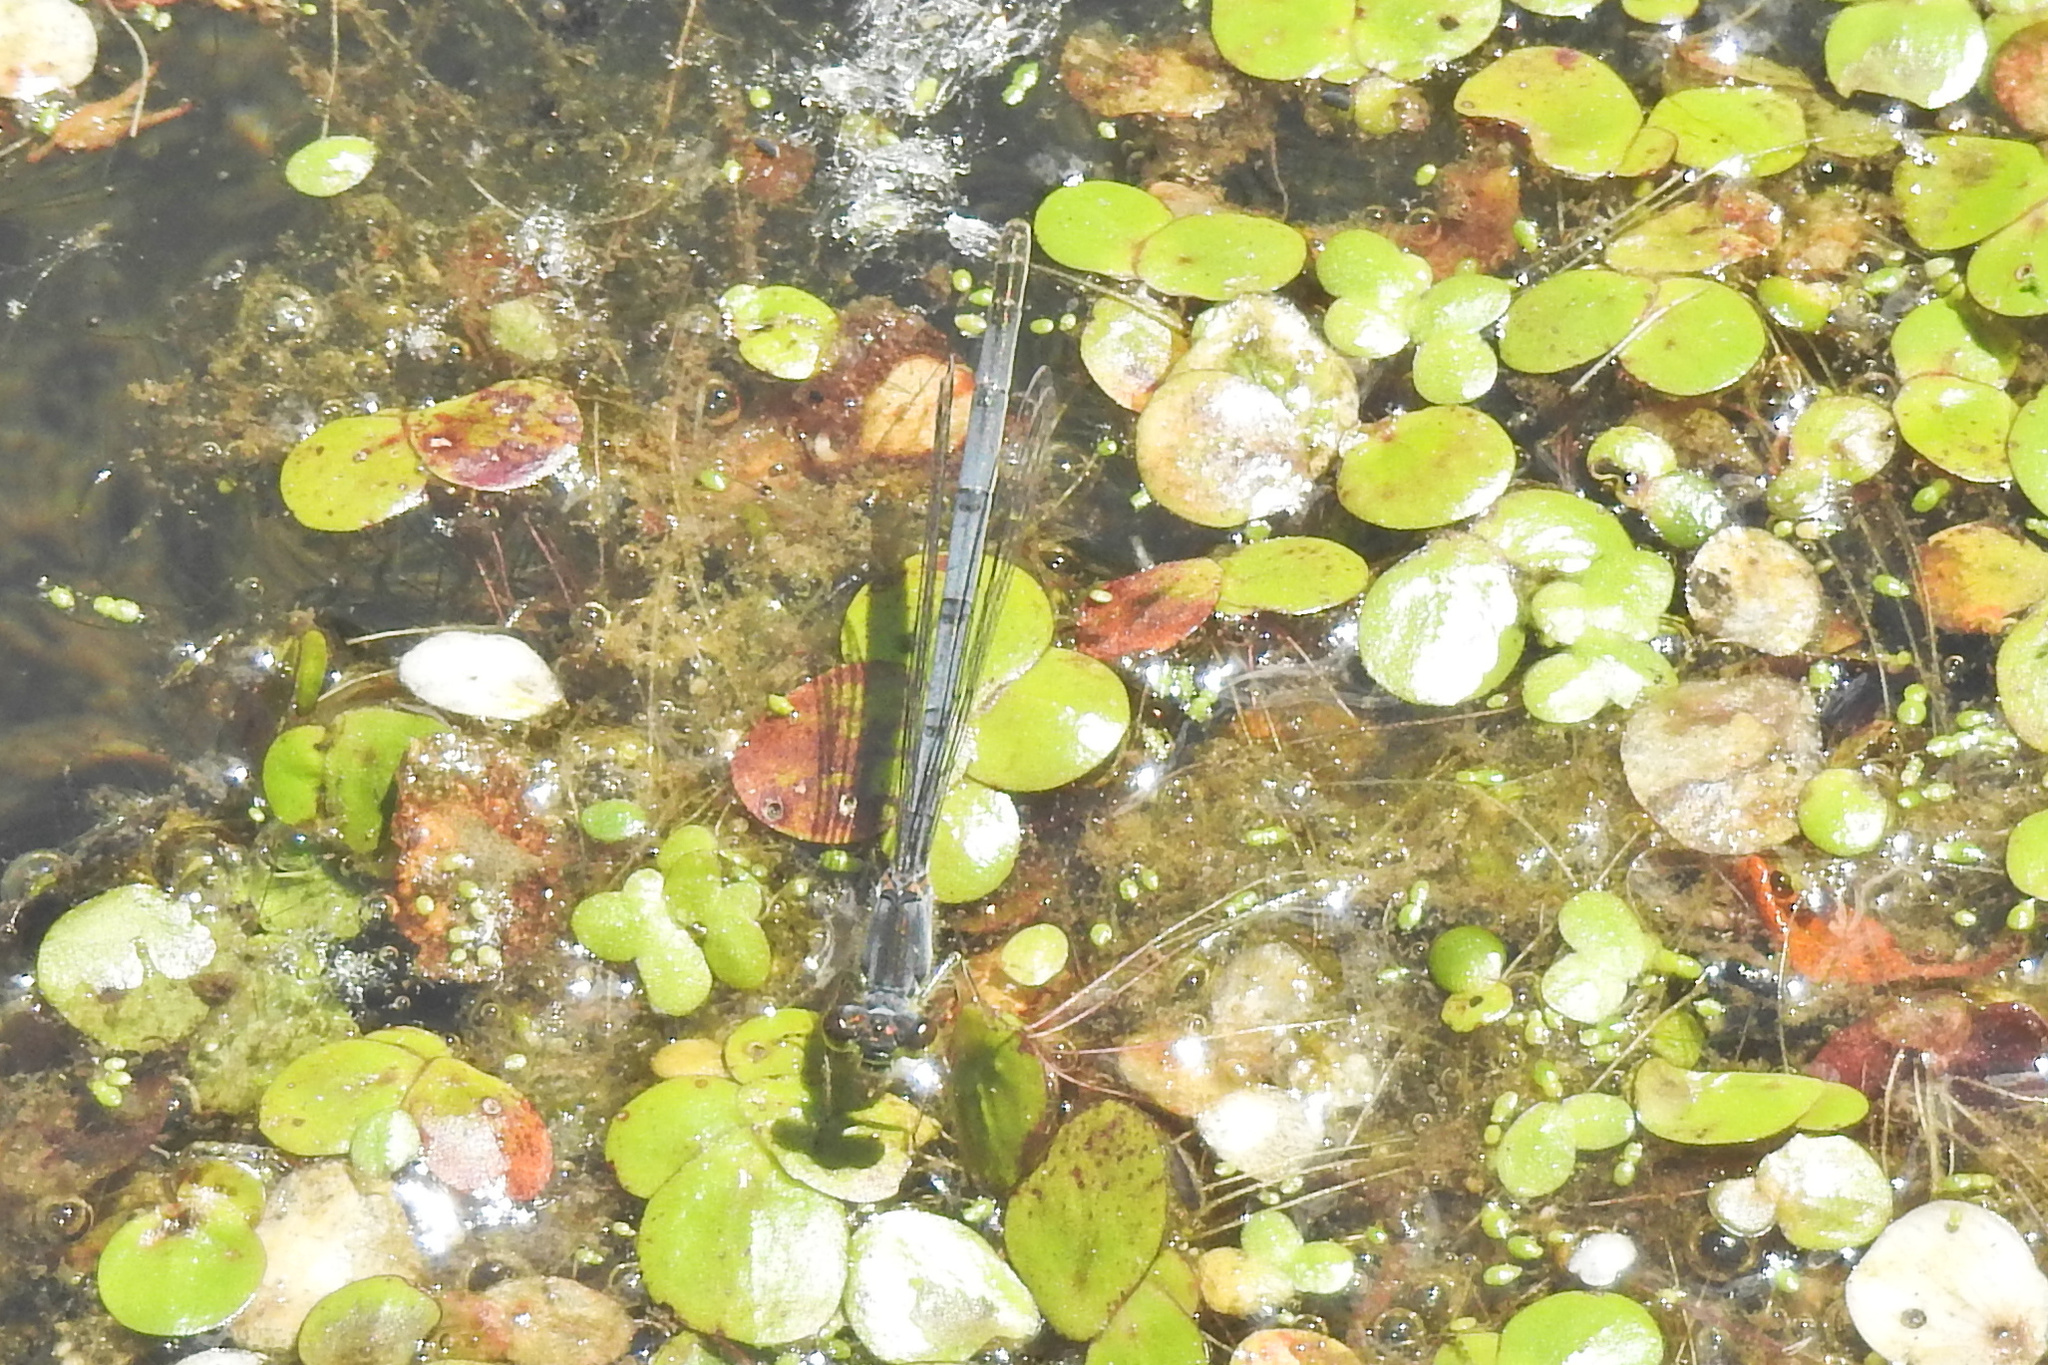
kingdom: Animalia
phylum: Arthropoda
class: Insecta
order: Odonata
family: Coenagrionidae
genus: Ischnura
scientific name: Ischnura posita
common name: Fragile forktail
